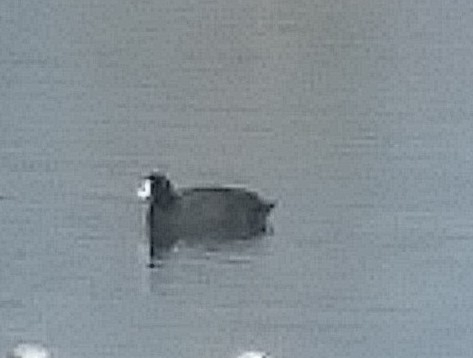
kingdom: Animalia
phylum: Chordata
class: Aves
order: Gruiformes
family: Rallidae
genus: Fulica
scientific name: Fulica americana
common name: American coot
